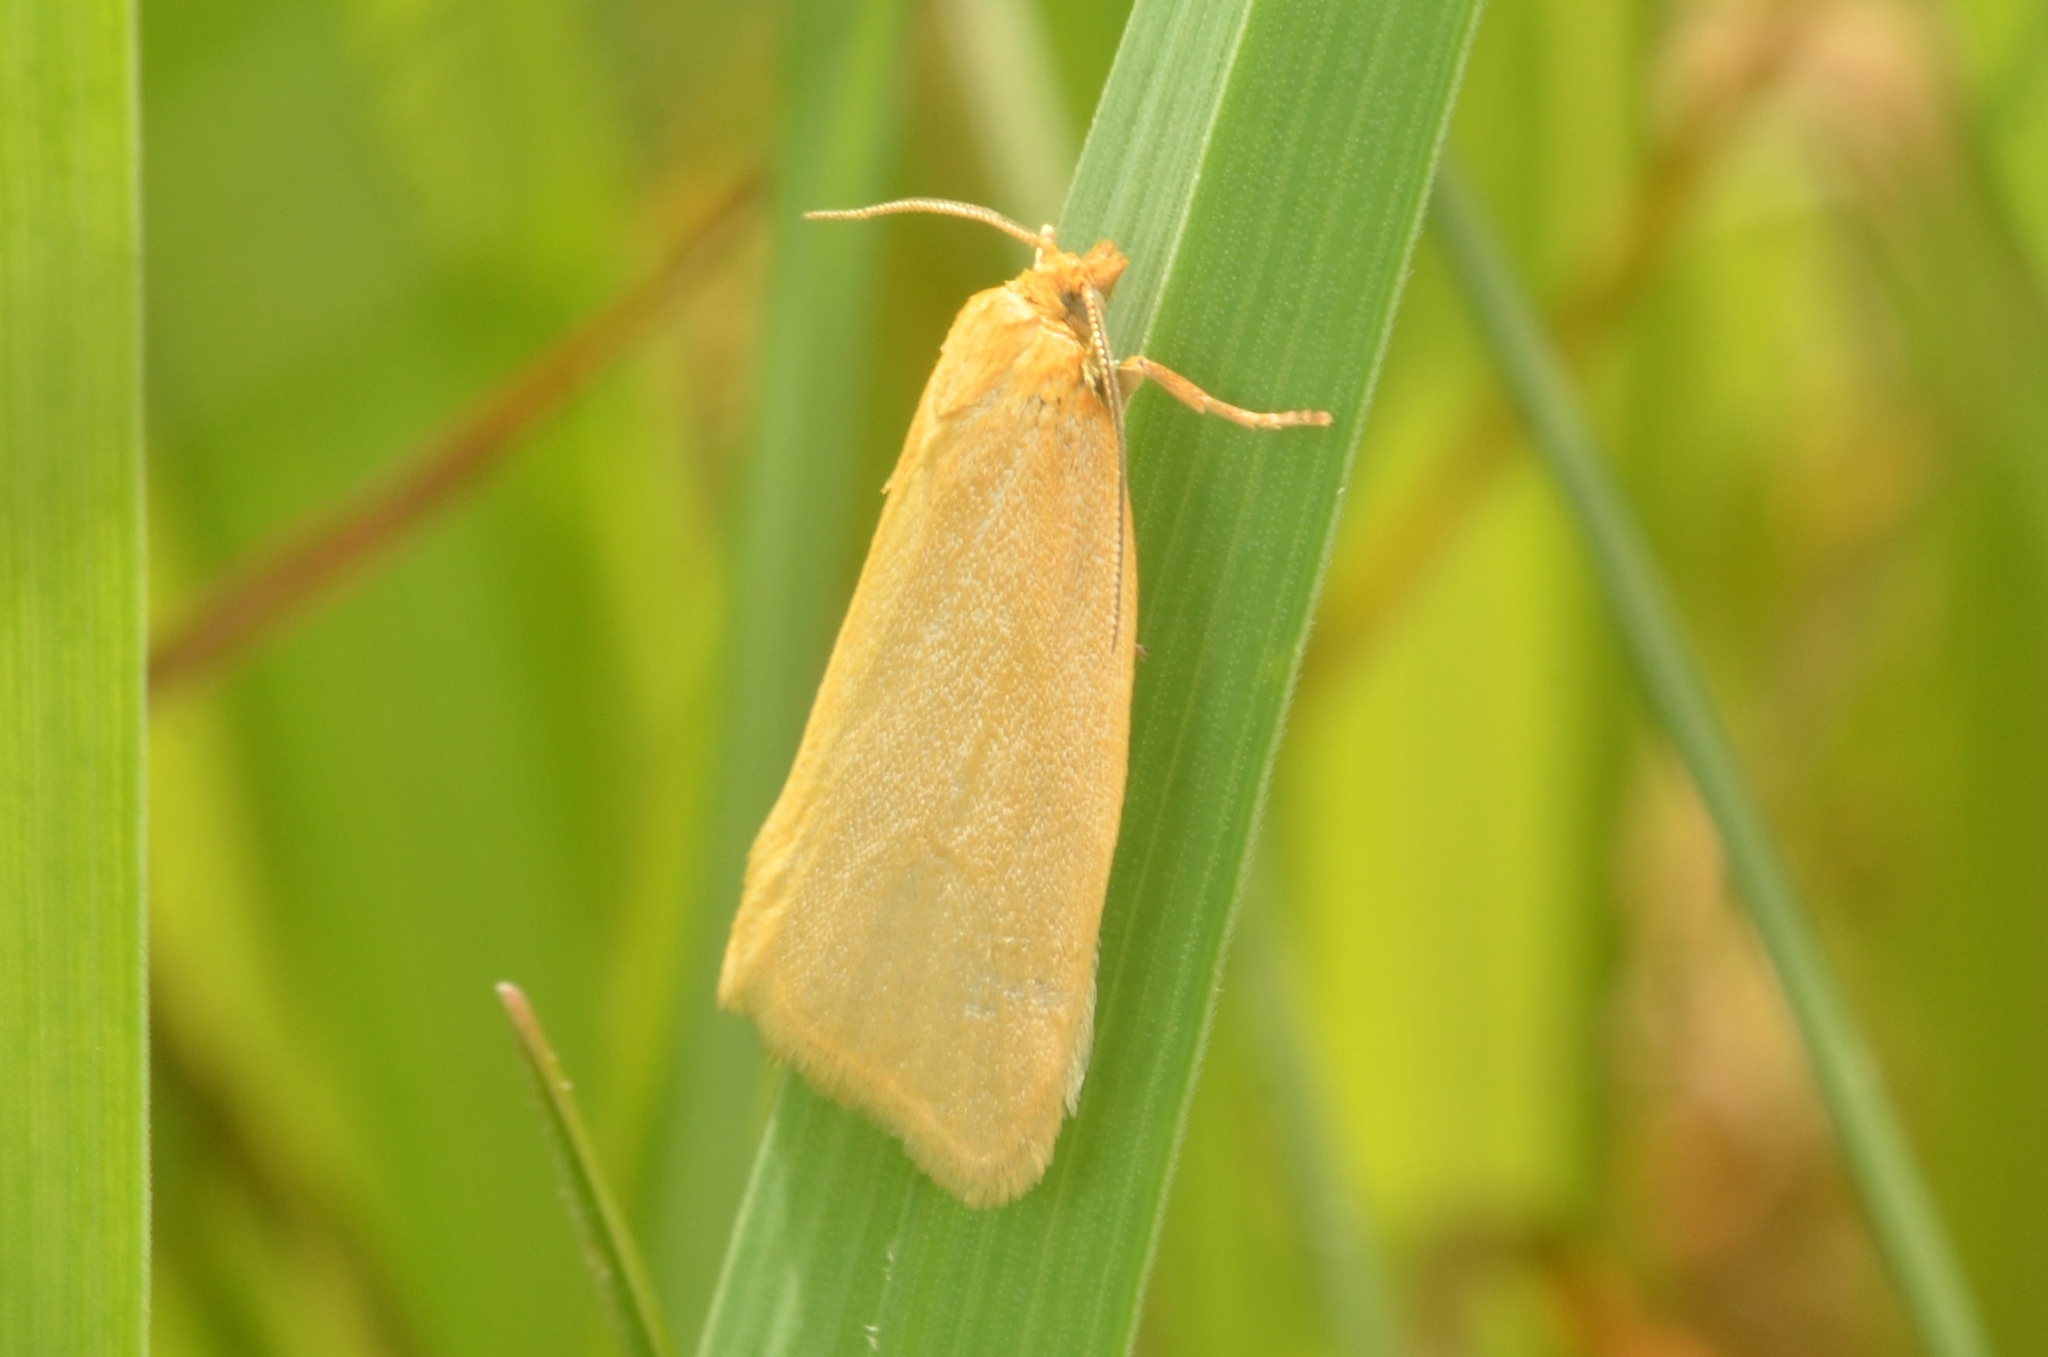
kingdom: Animalia
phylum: Arthropoda
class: Insecta
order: Lepidoptera
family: Tortricidae
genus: Aphelia
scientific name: Aphelia Zelotherses paleana
